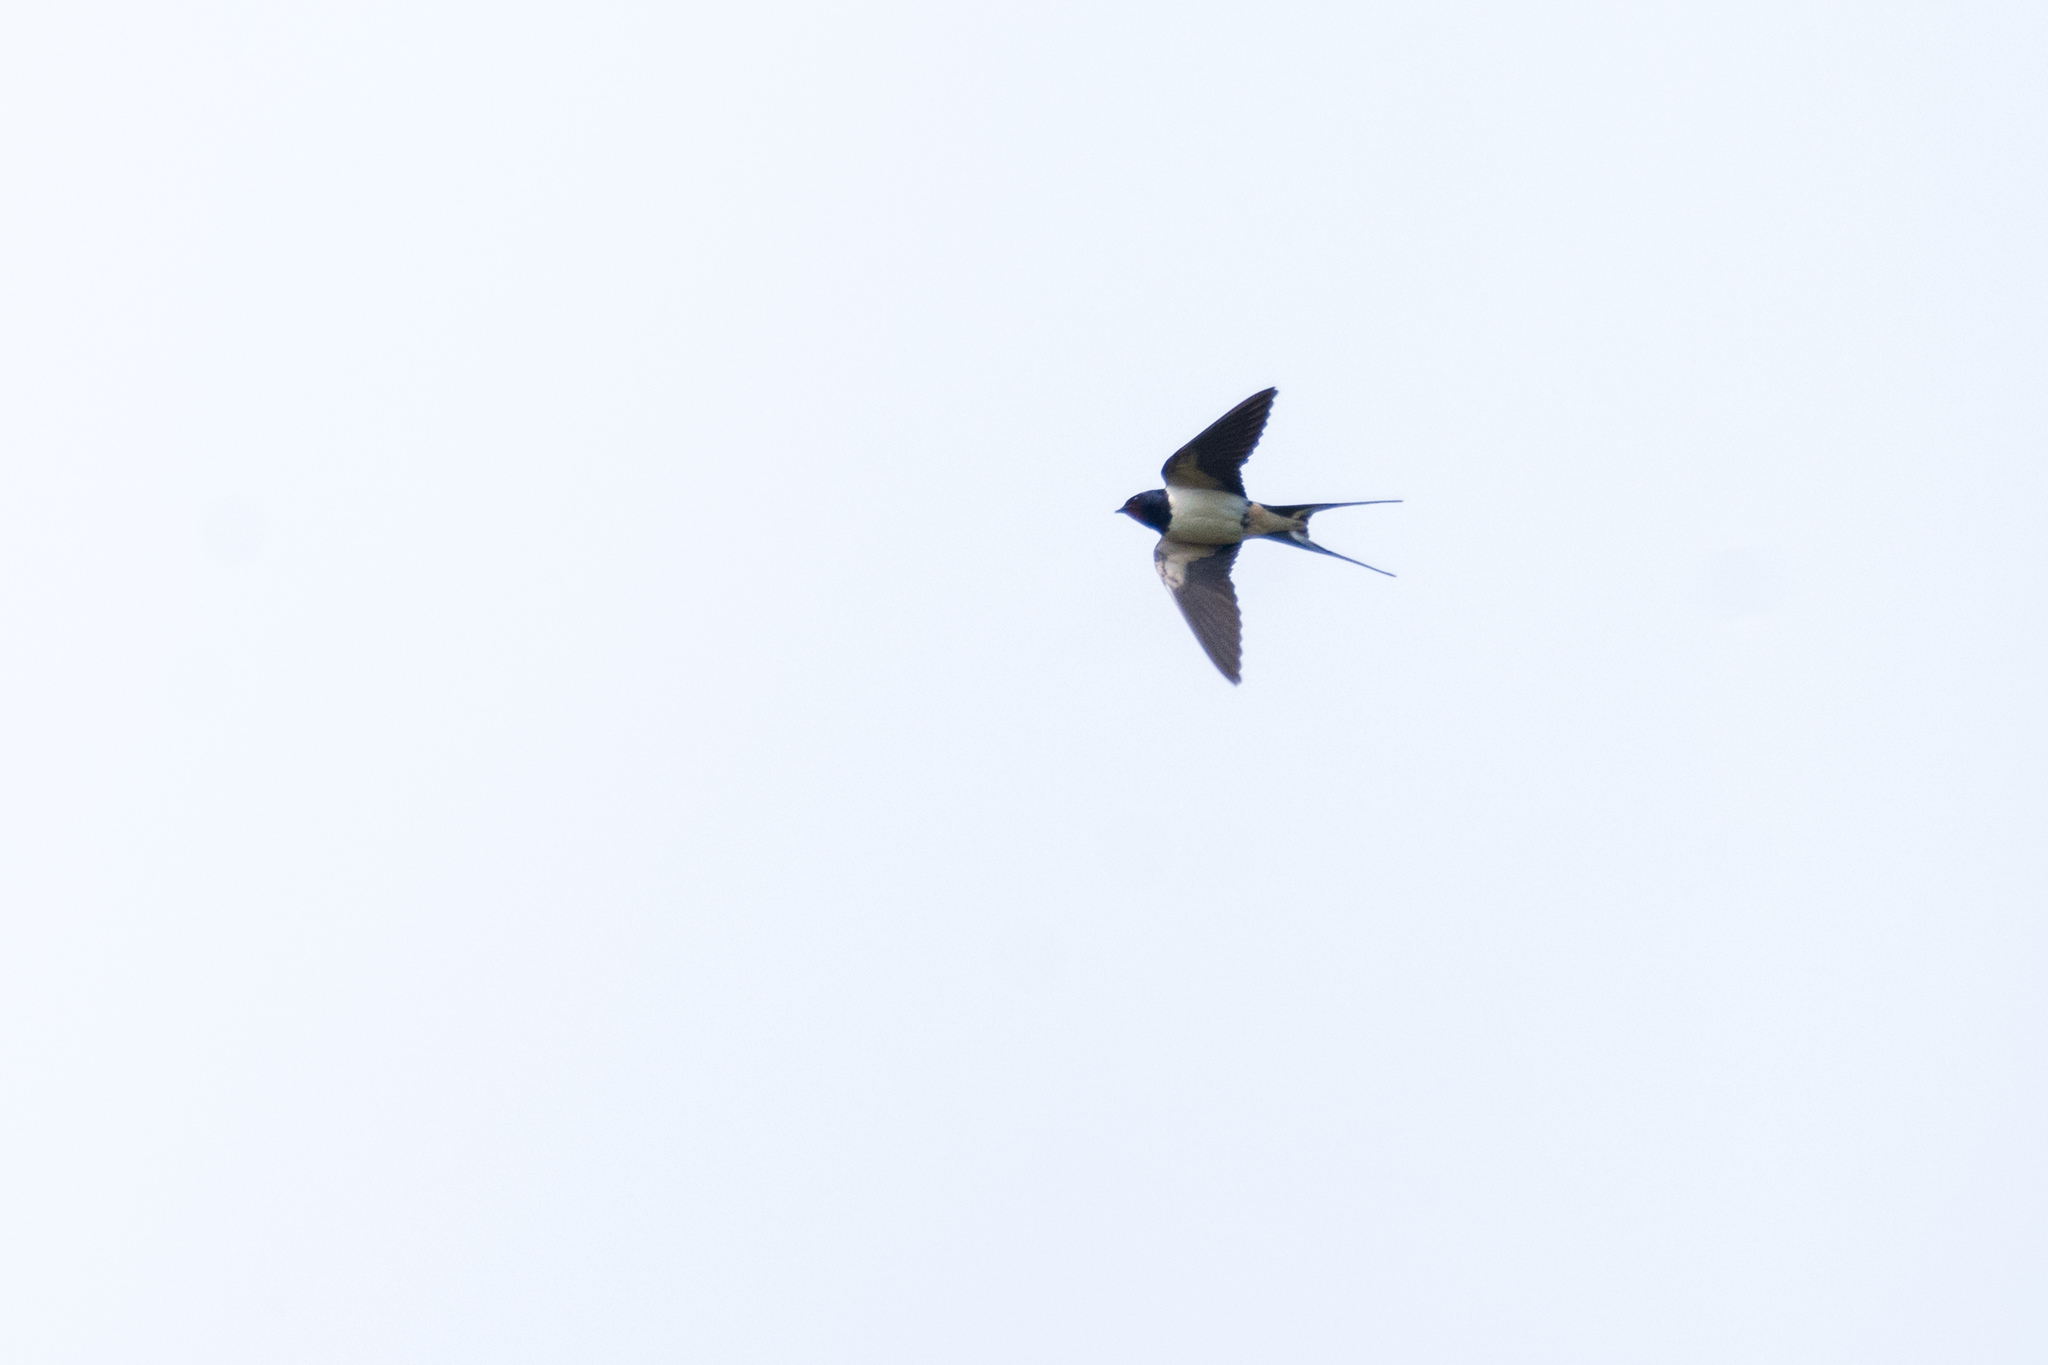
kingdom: Animalia
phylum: Chordata
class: Aves
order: Passeriformes
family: Hirundinidae
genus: Hirundo
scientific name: Hirundo rustica
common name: Barn swallow
